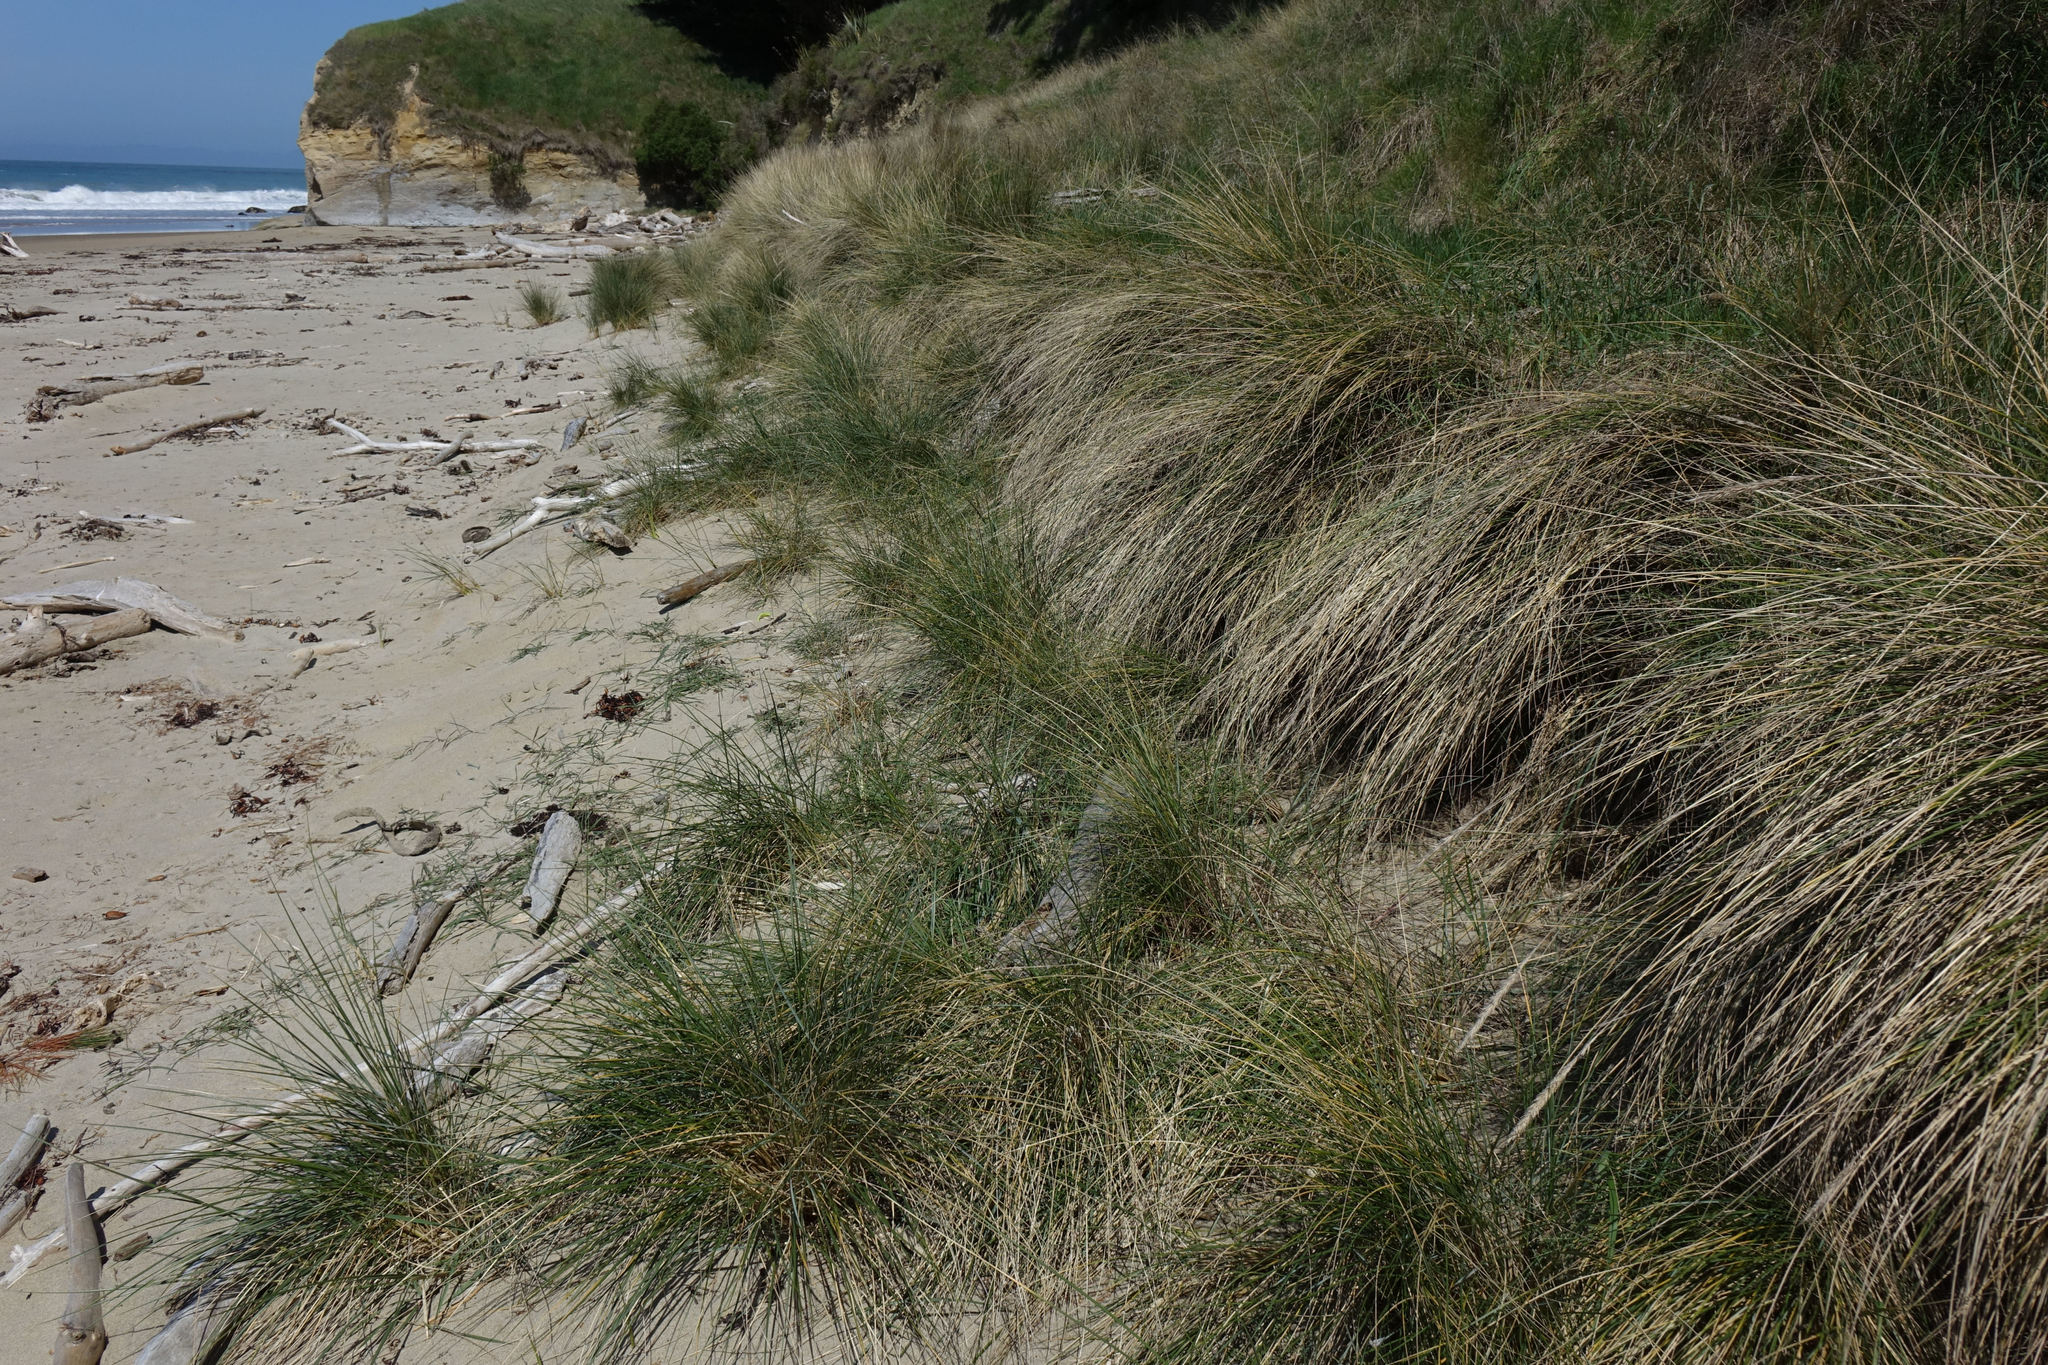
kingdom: Plantae
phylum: Tracheophyta
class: Liliopsida
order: Poales
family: Poaceae
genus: Calamagrostis
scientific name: Calamagrostis arenaria
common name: European beachgrass
